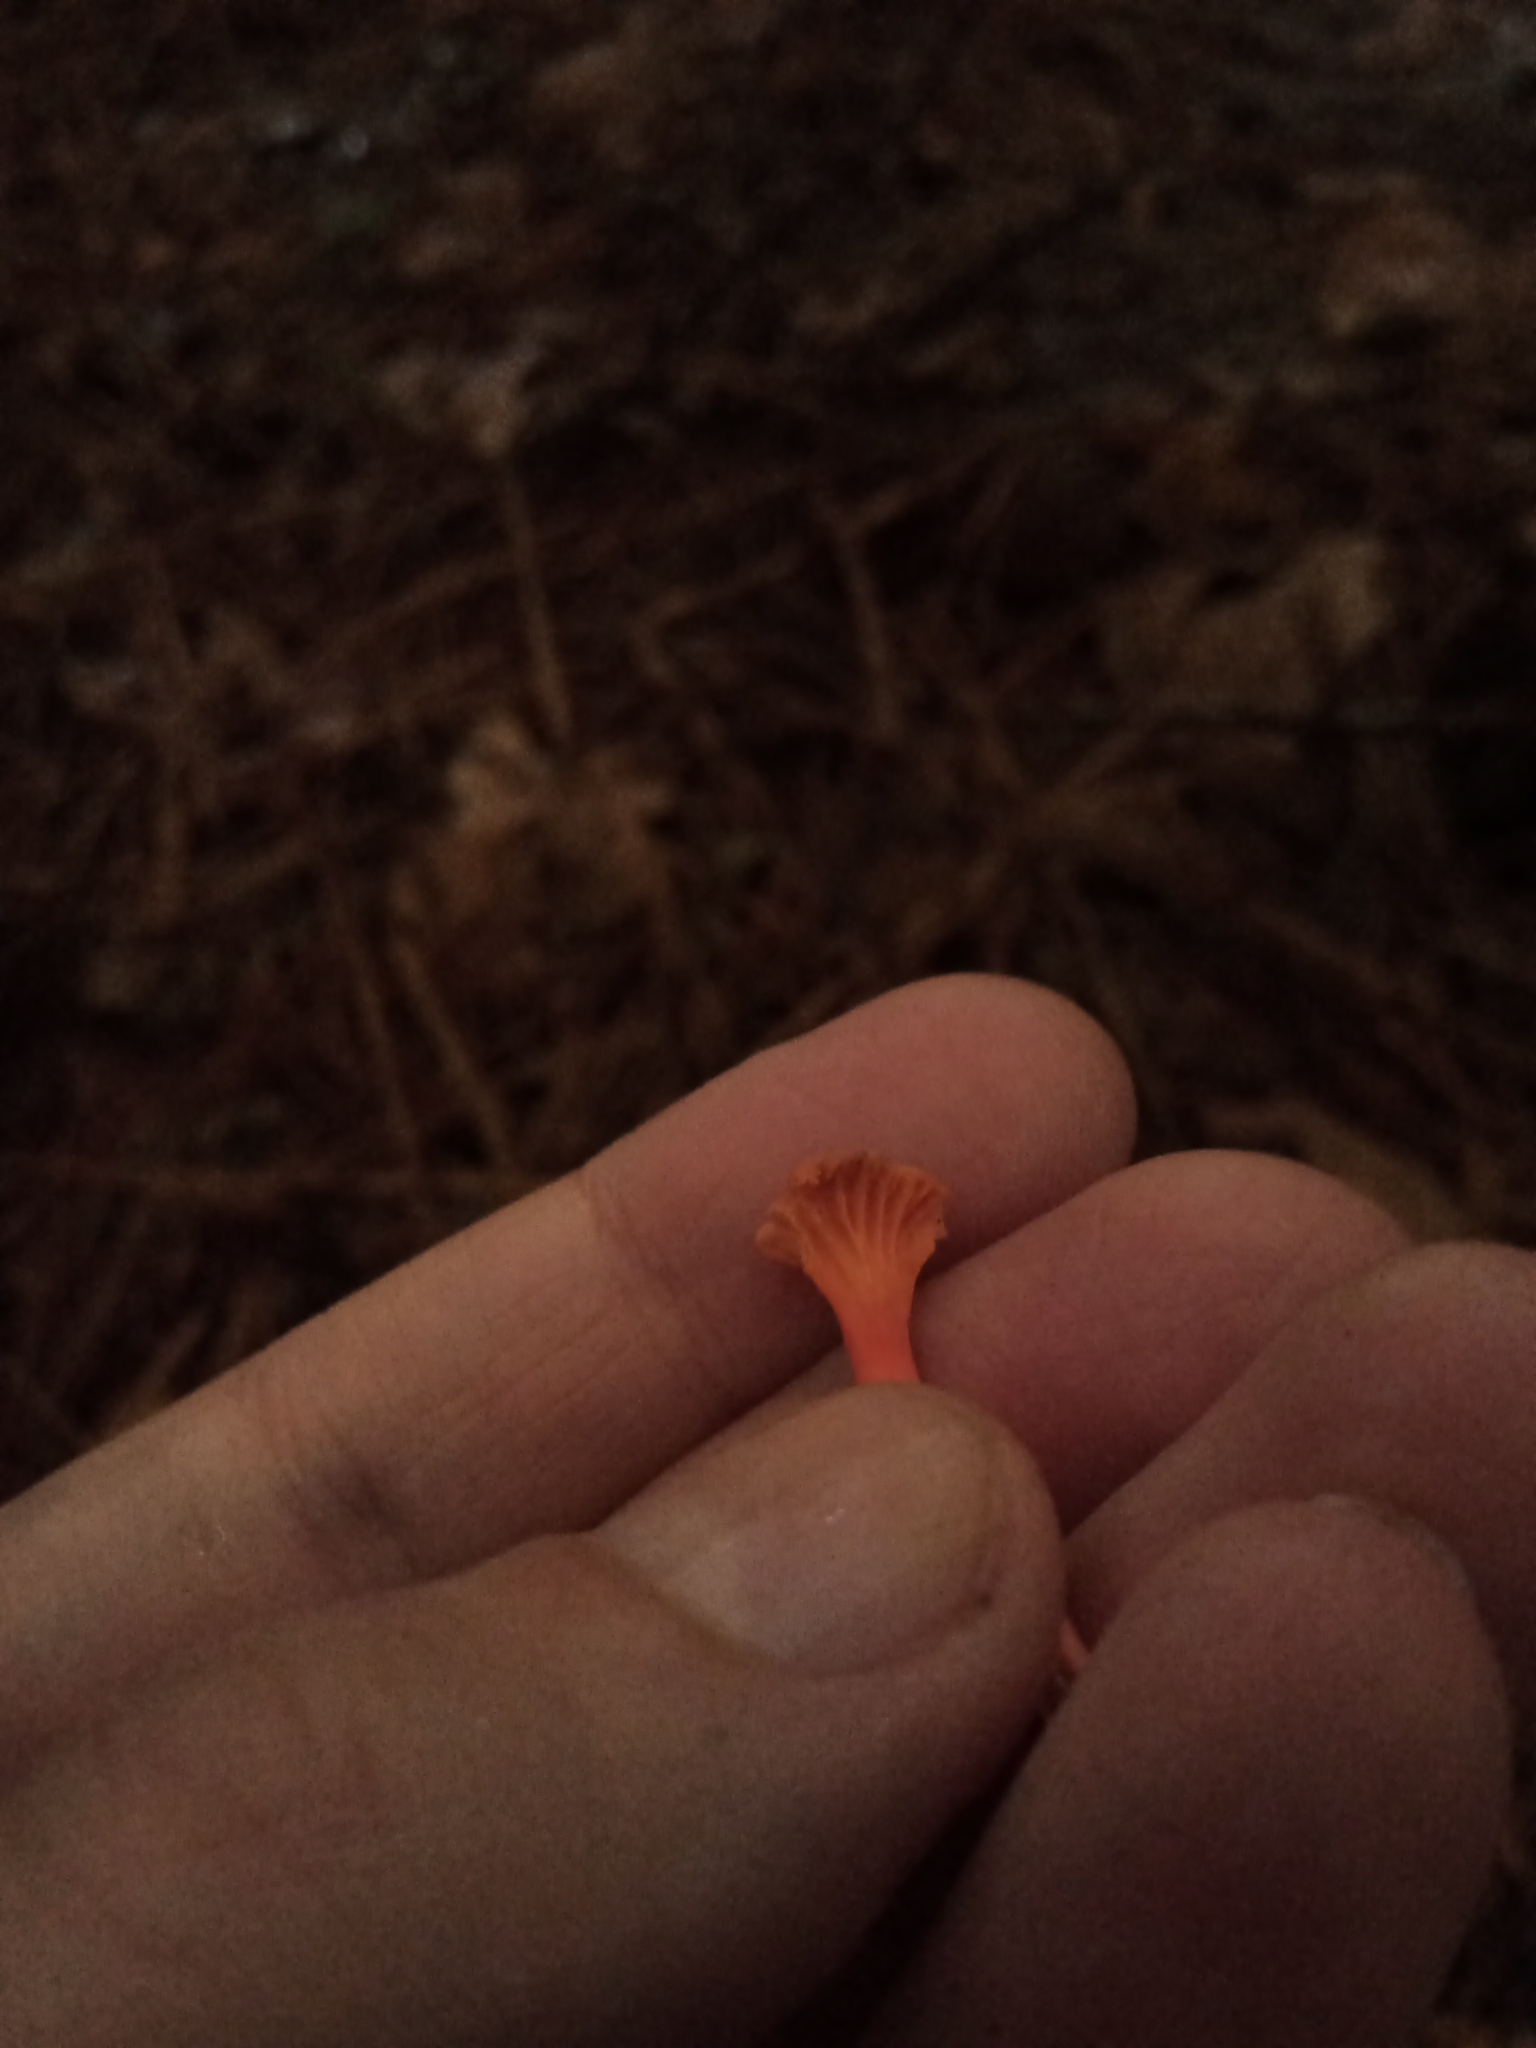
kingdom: Fungi
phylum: Basidiomycota
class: Agaricomycetes
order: Cantharellales
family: Hydnaceae
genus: Cantharellus
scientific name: Cantharellus cinnabarinus
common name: Cinnabar chanterelle
